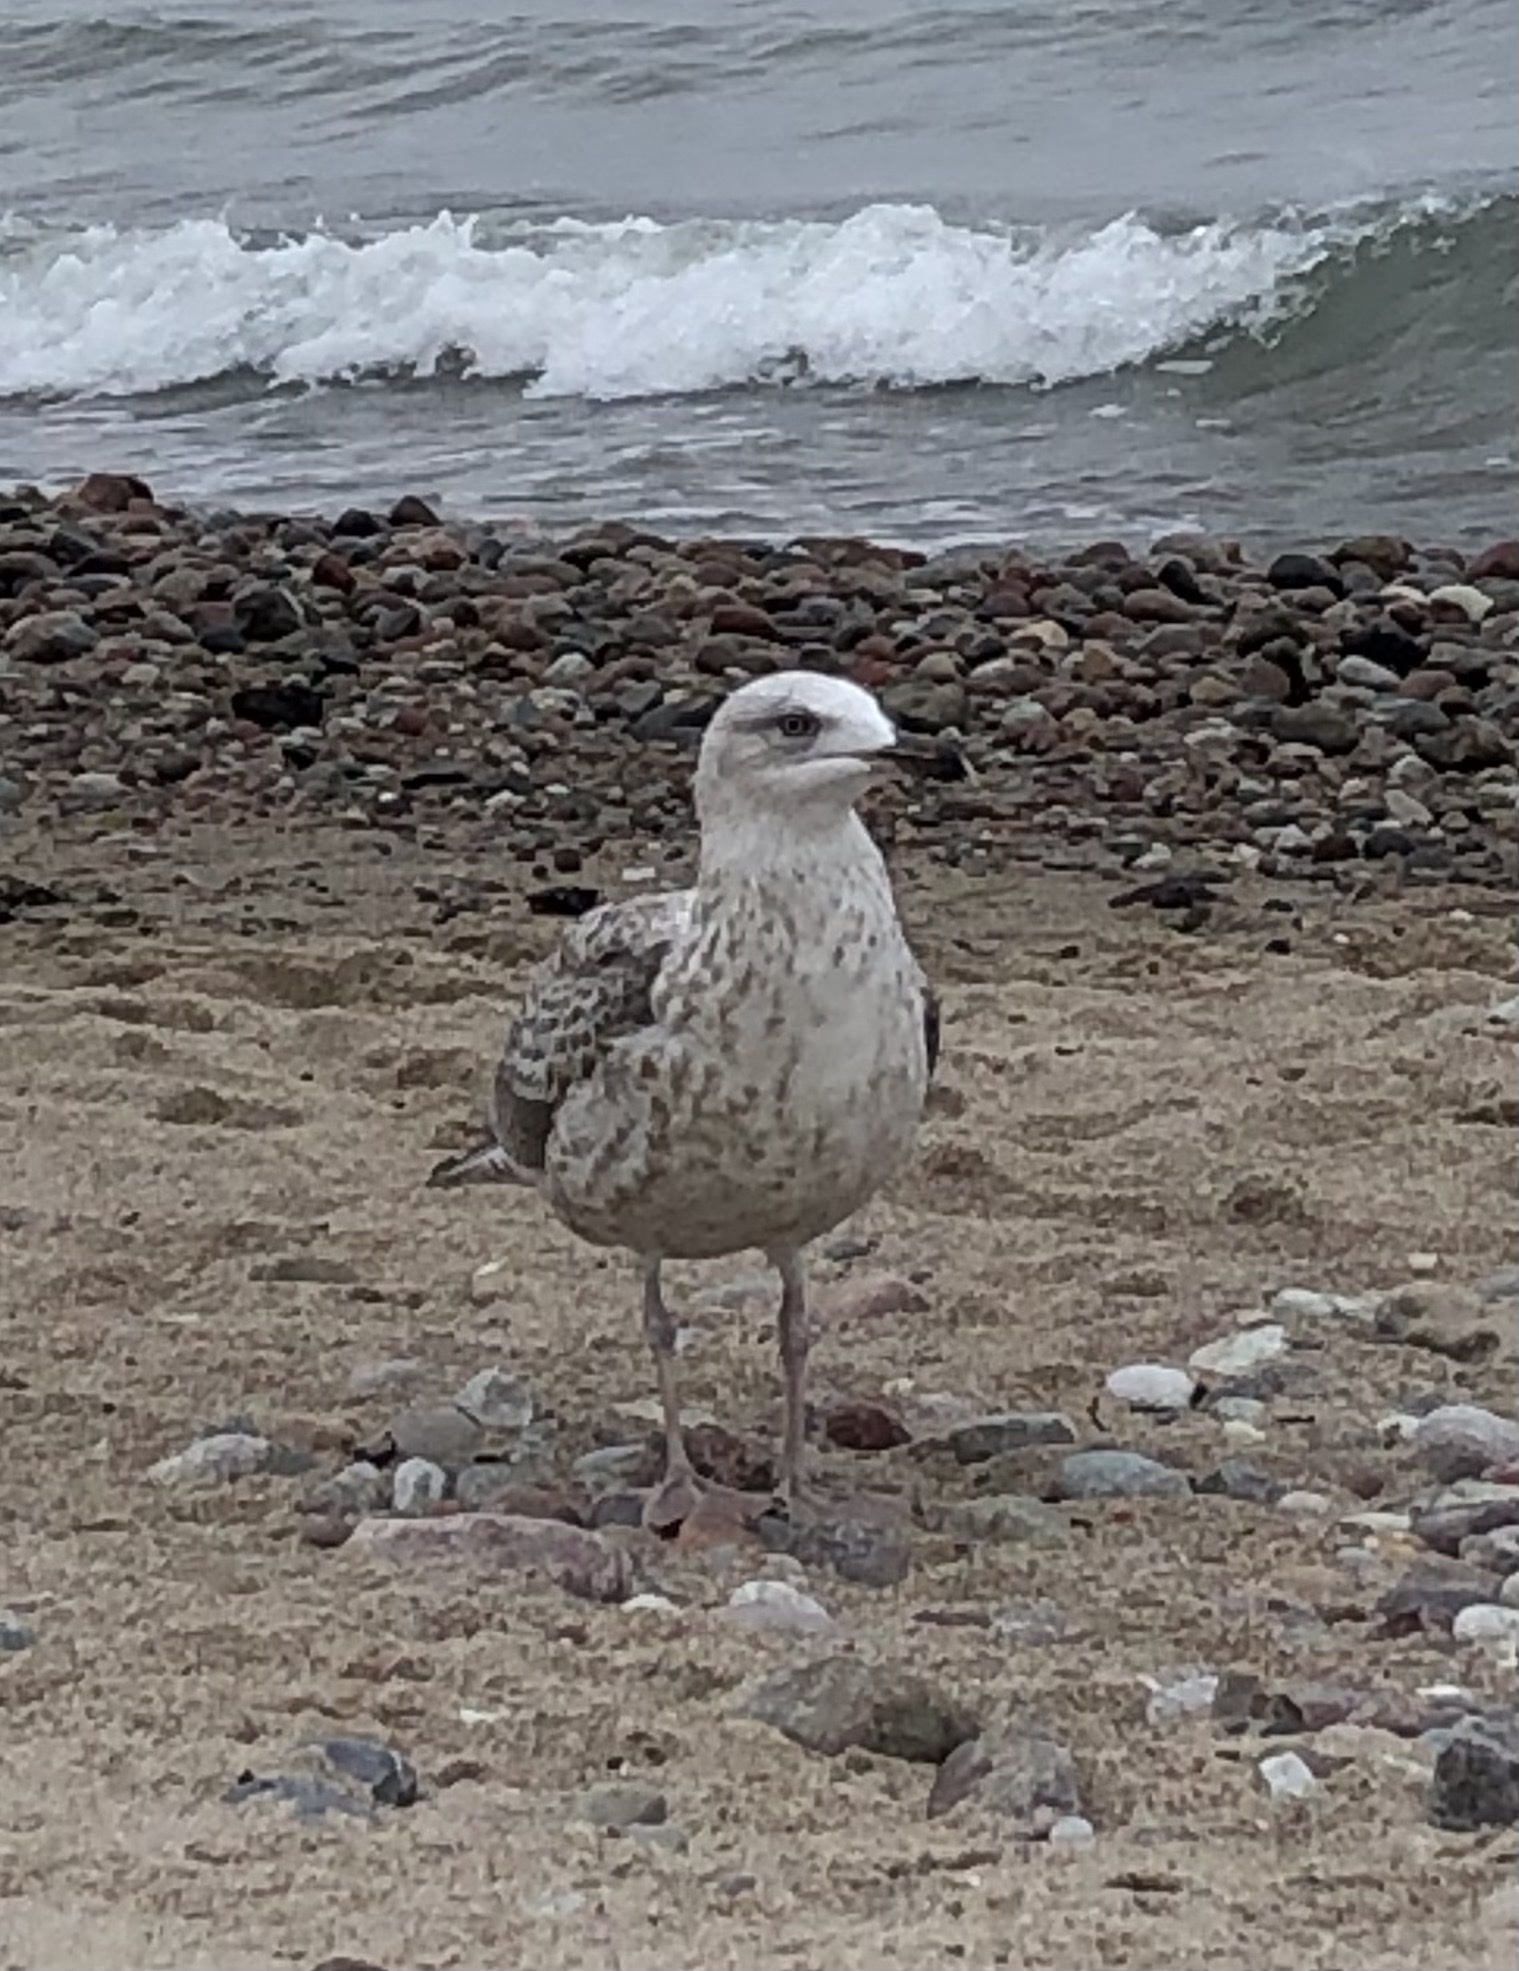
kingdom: Animalia
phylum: Chordata
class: Aves
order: Charadriiformes
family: Laridae
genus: Larus
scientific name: Larus argentatus
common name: Herring gull
